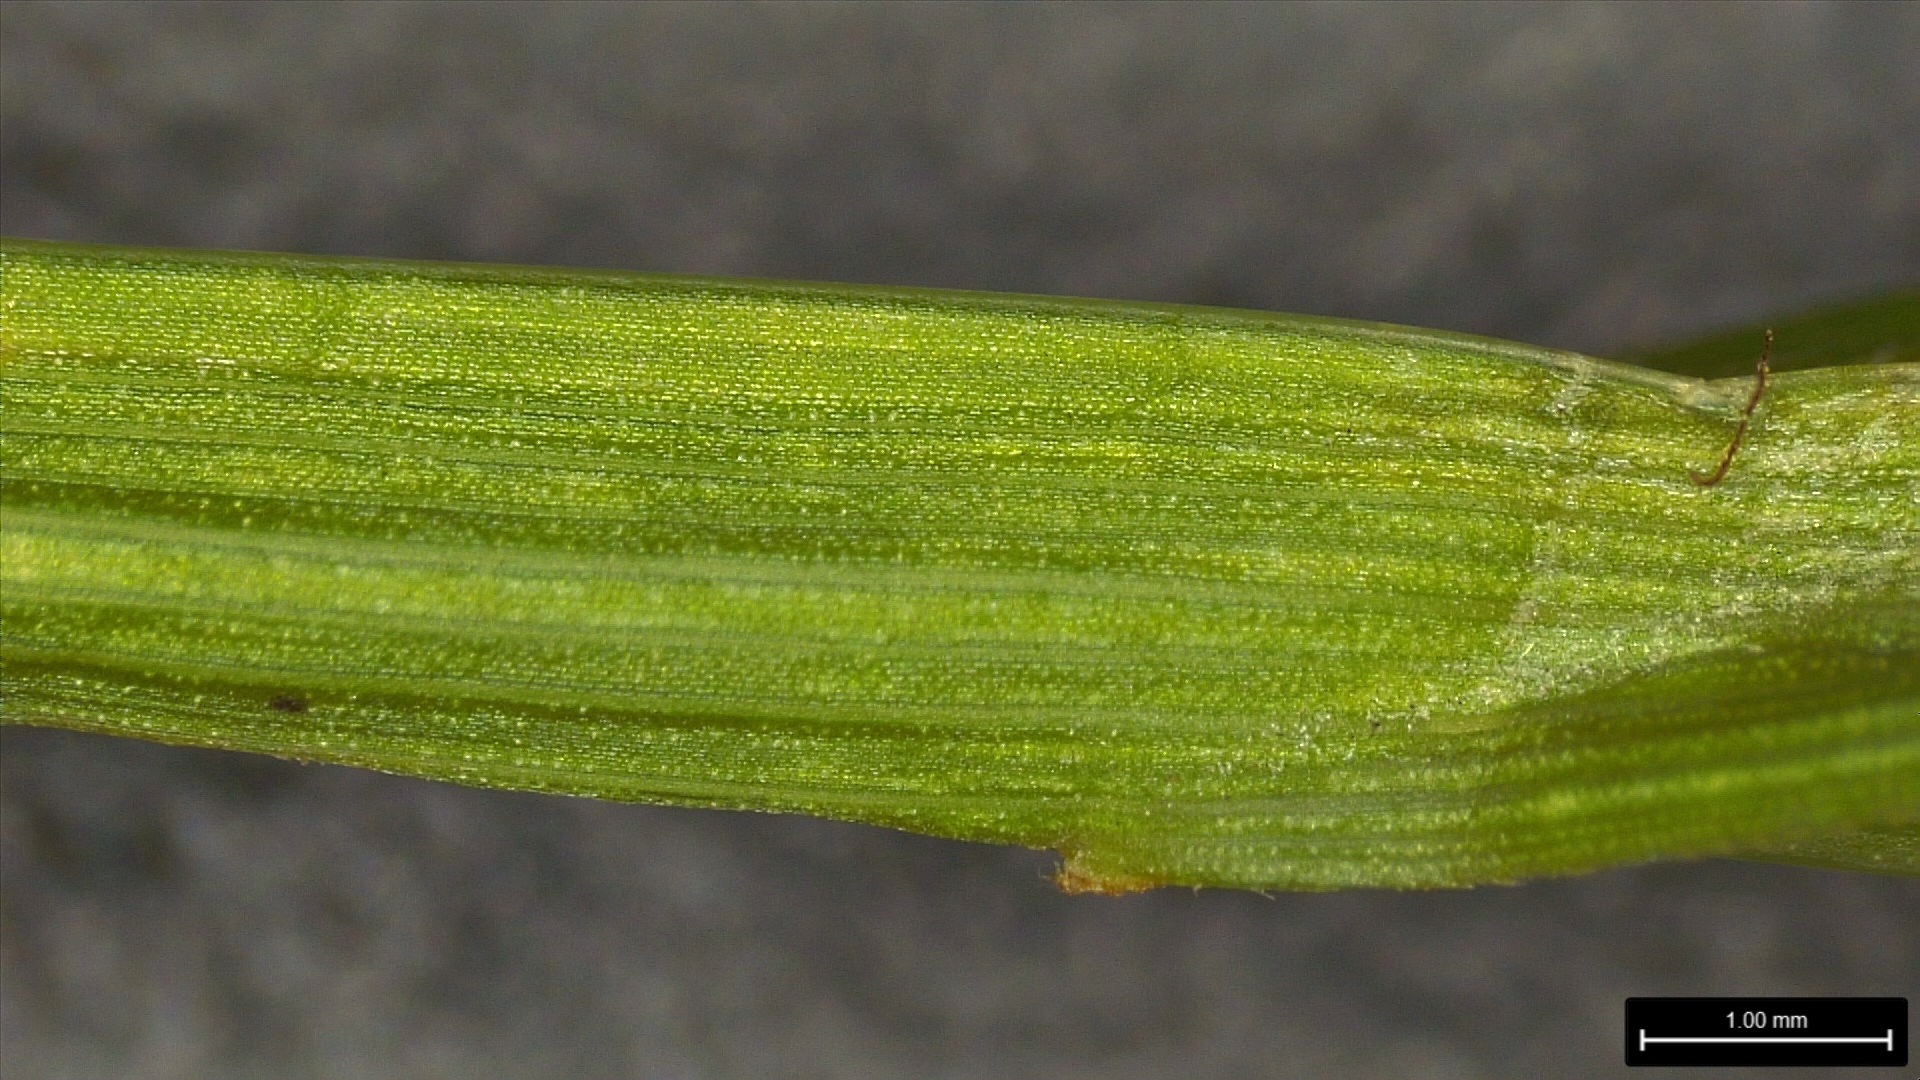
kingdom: Plantae
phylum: Tracheophyta
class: Liliopsida
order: Poales
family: Cyperaceae
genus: Carex
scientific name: Carex tribuloides
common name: Blunt broom sedge
